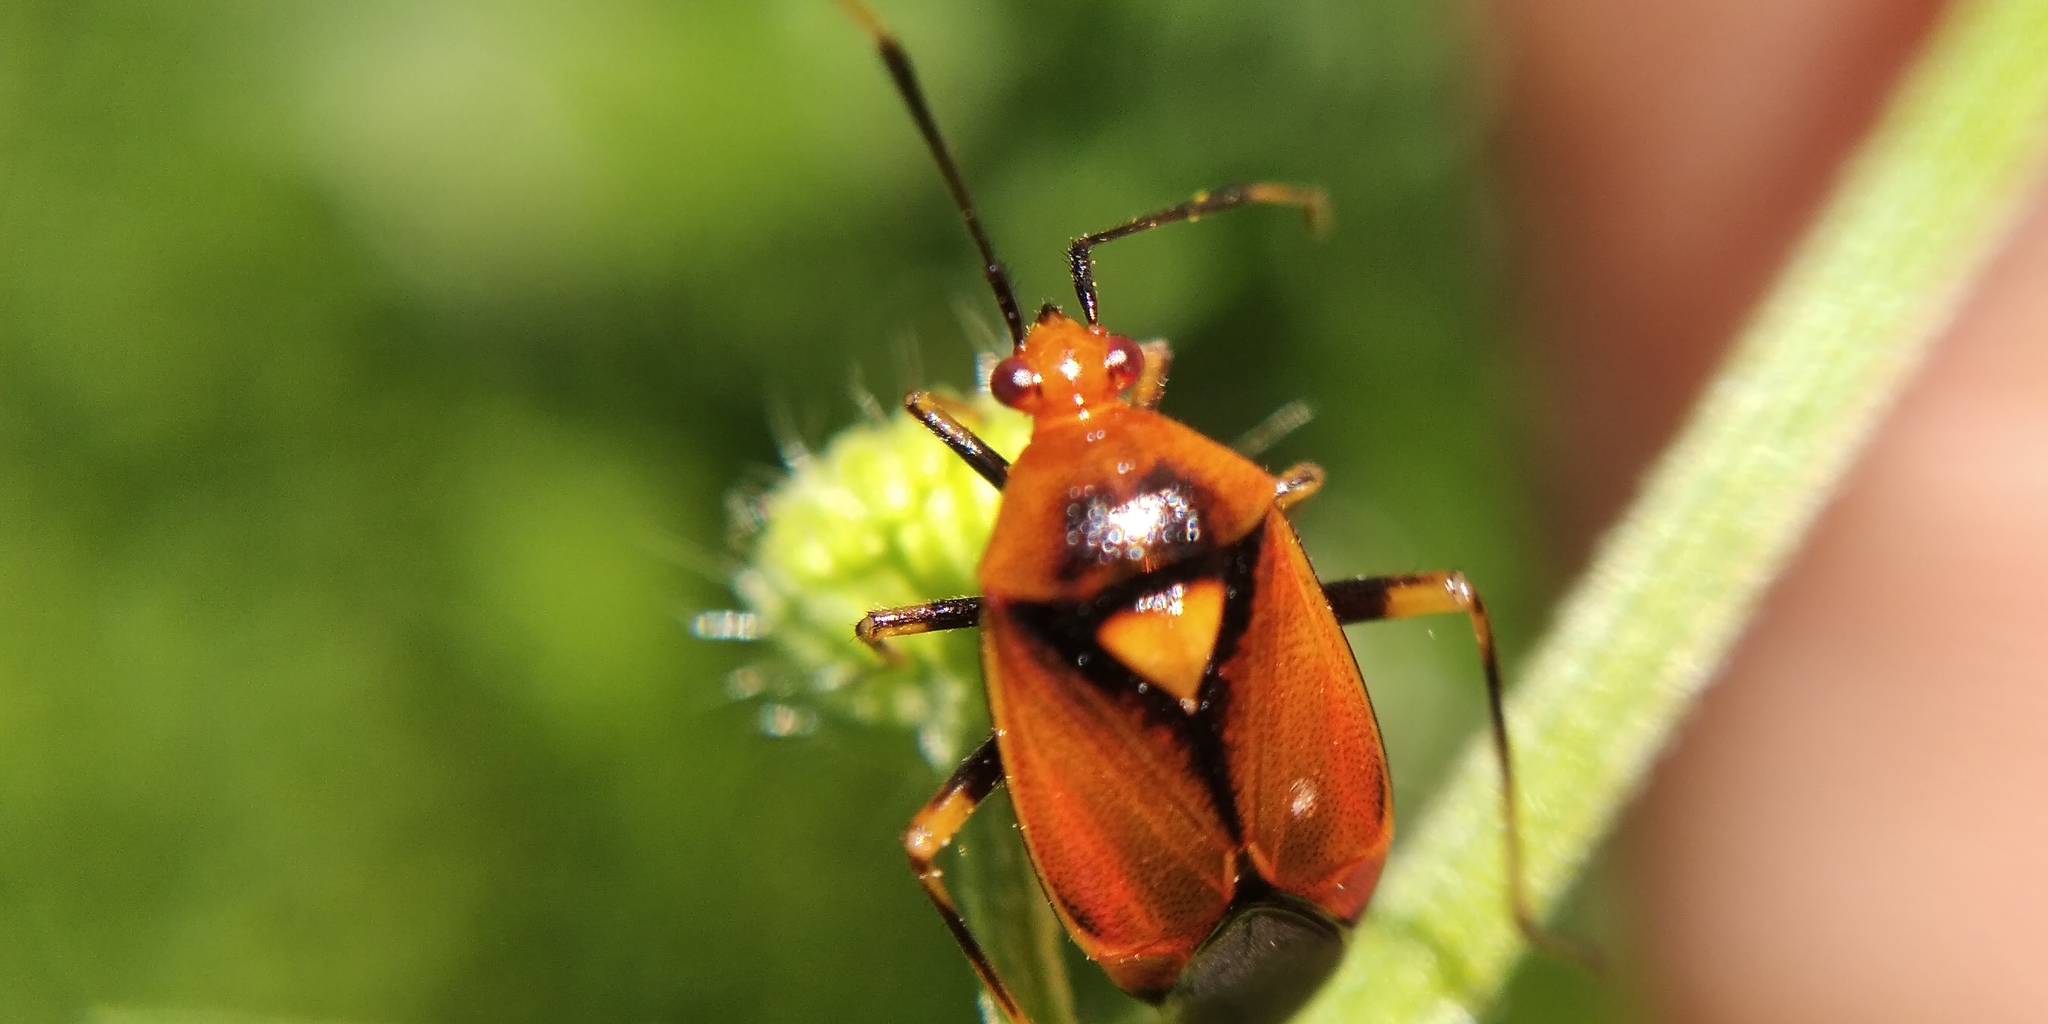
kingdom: Animalia
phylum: Arthropoda
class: Insecta
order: Hemiptera
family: Miridae
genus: Deraeocoris
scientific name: Deraeocoris ruber
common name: Plant bug
